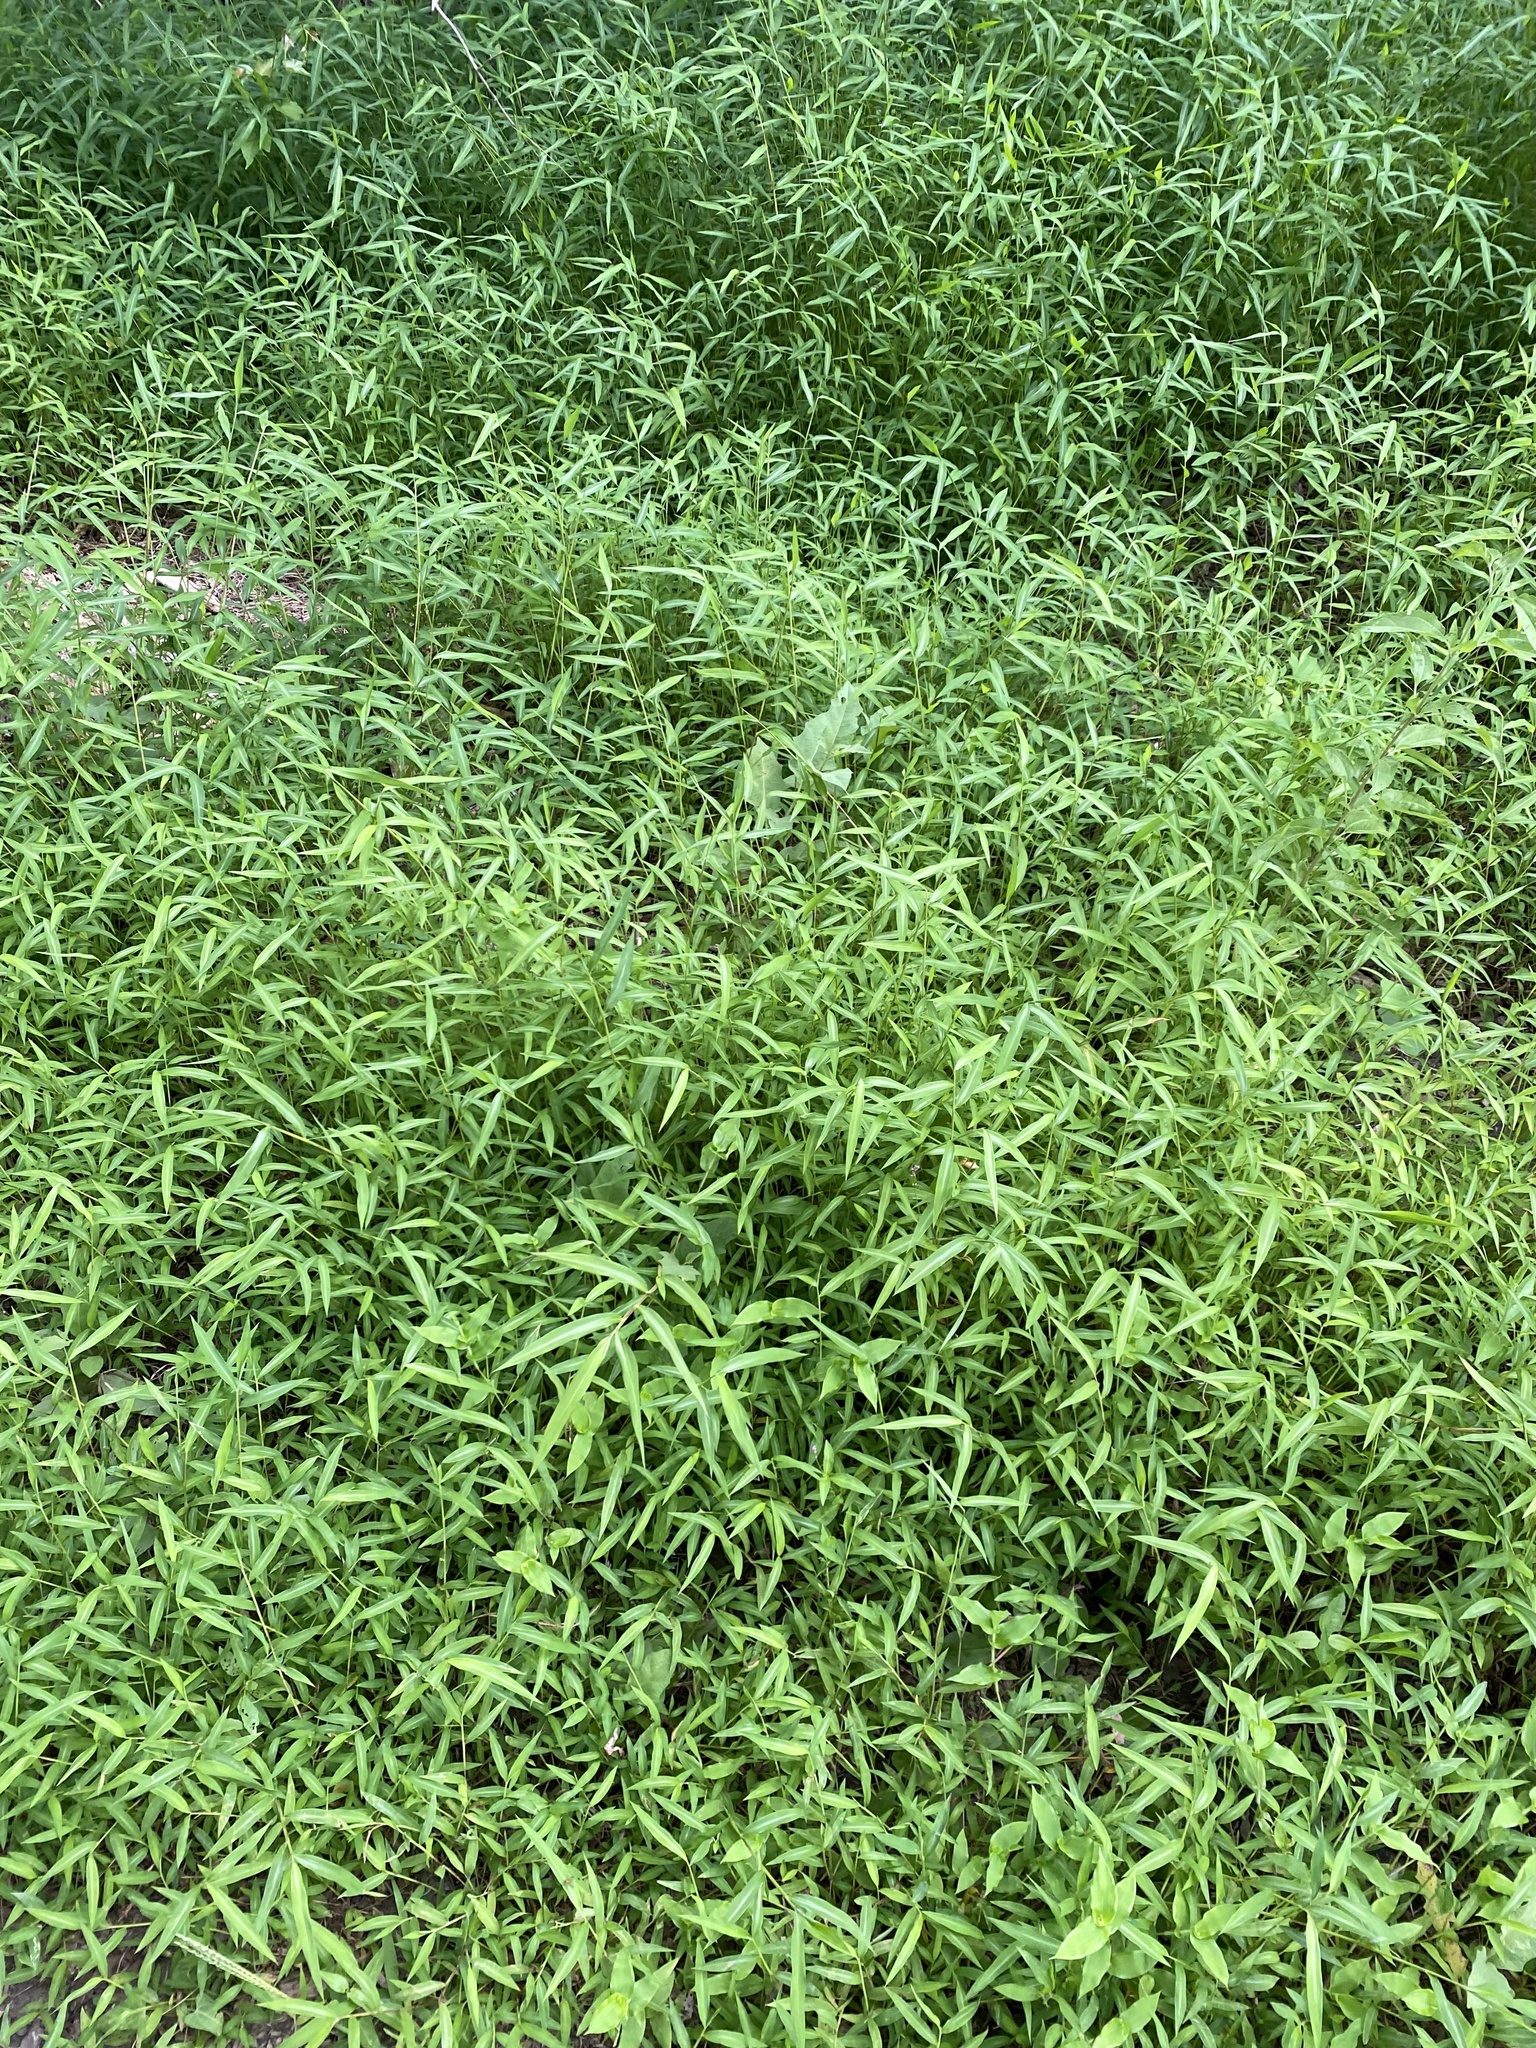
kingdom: Plantae
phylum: Tracheophyta
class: Liliopsida
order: Poales
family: Poaceae
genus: Microstegium
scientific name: Microstegium vimineum
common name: Japanese stiltgrass
